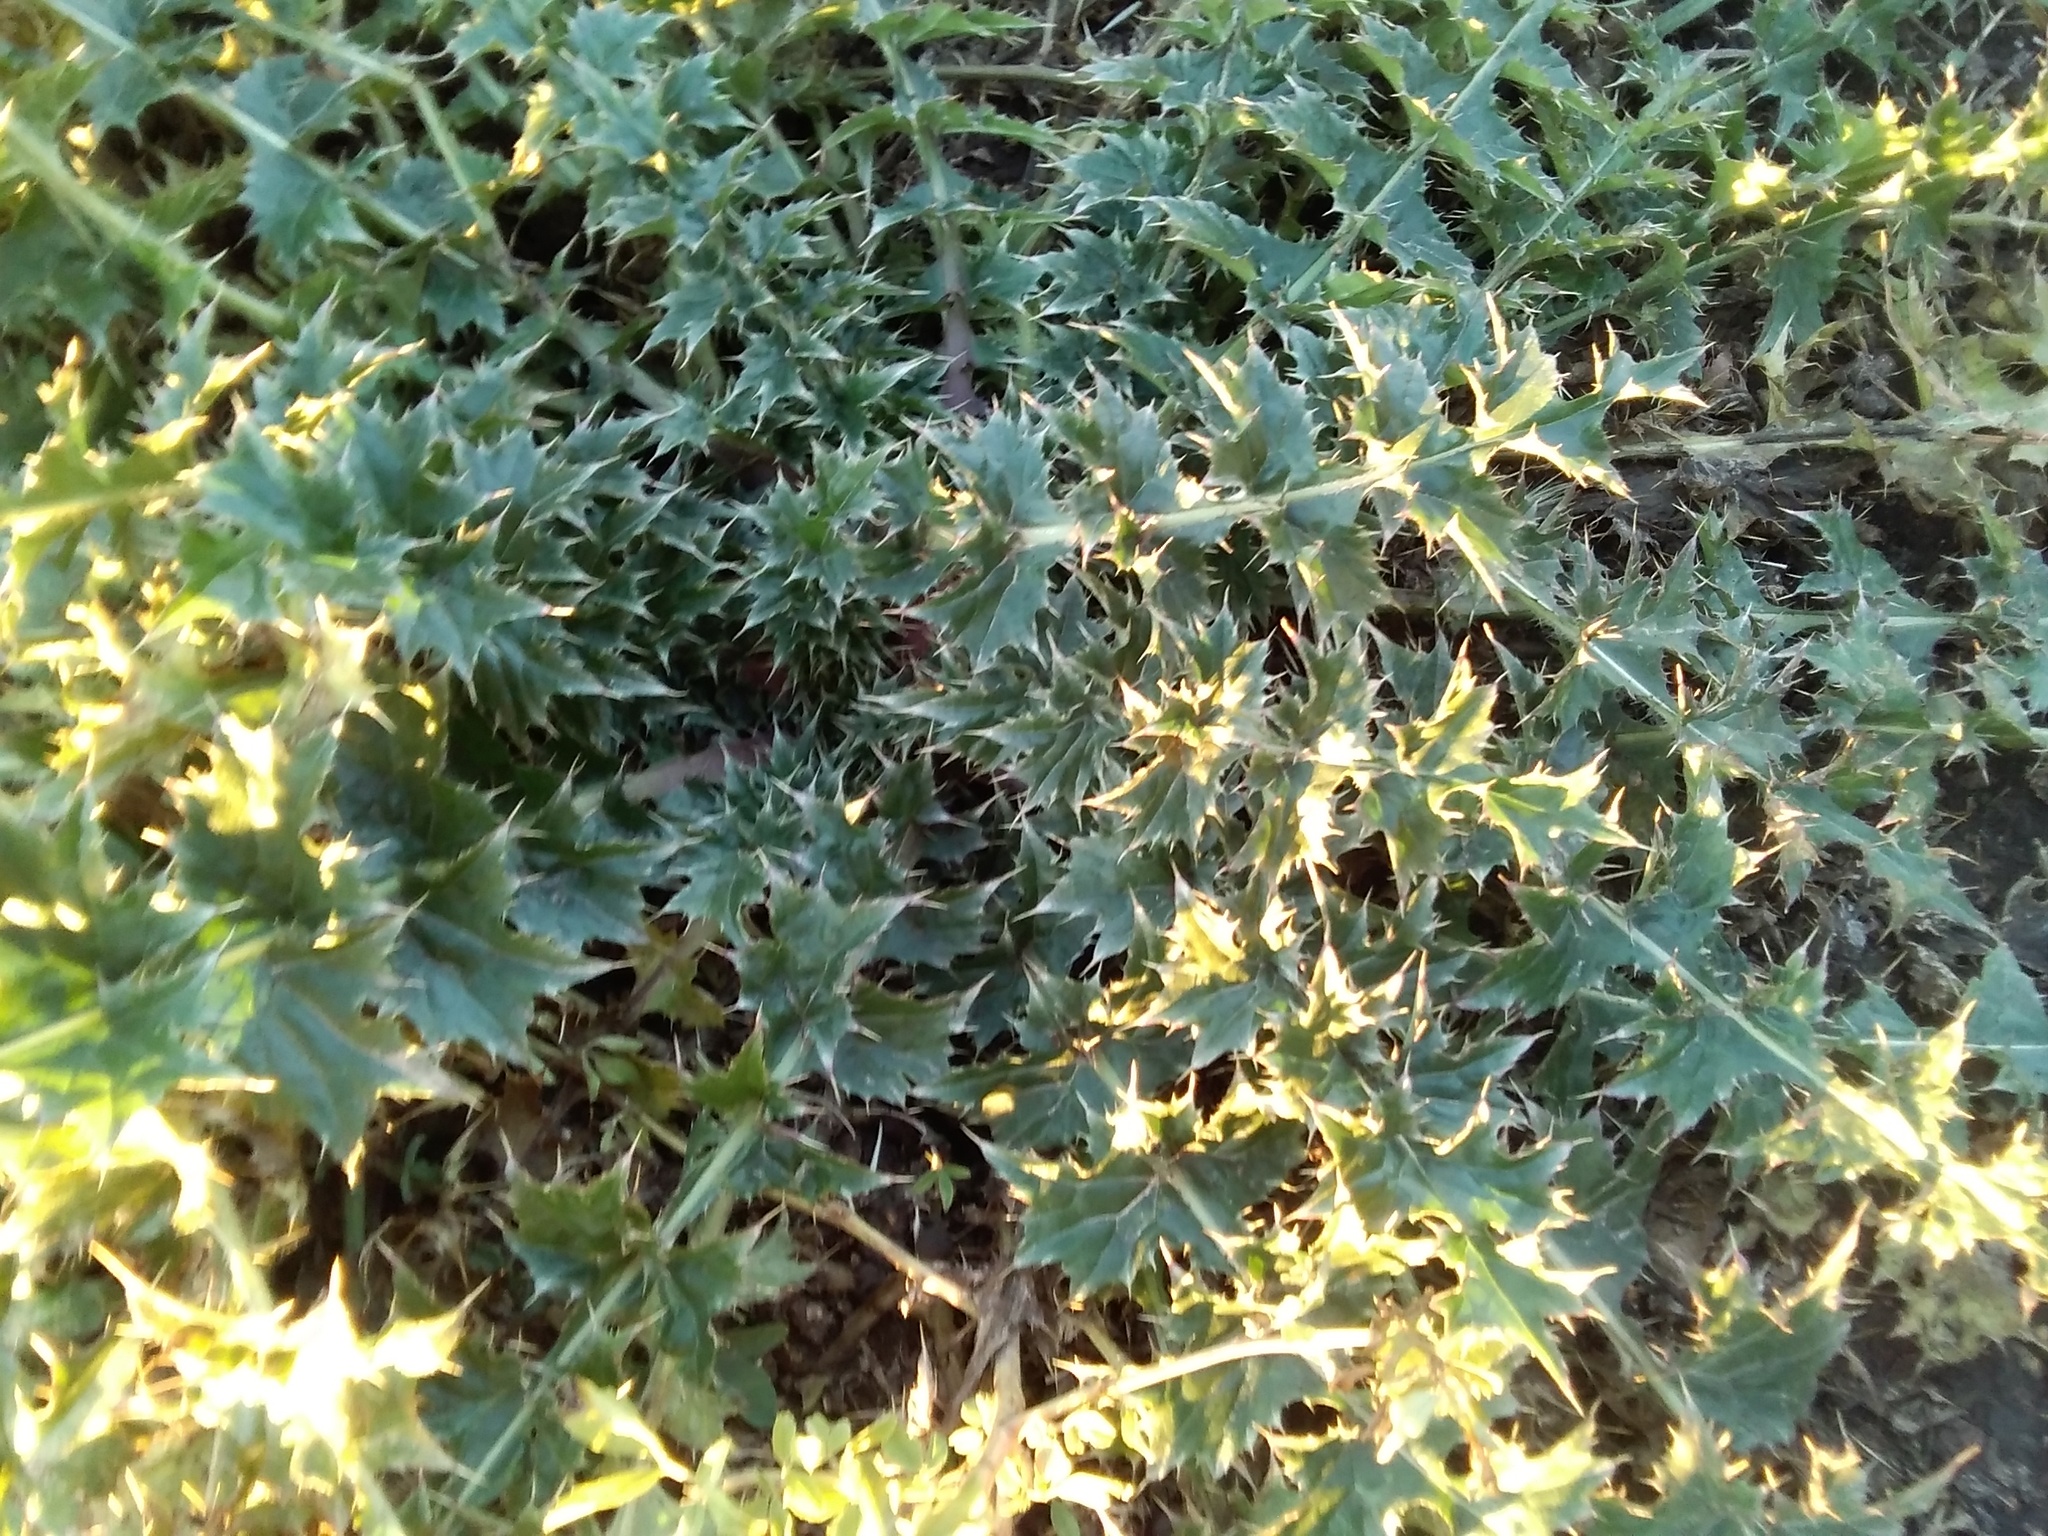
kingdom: Plantae
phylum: Tracheophyta
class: Magnoliopsida
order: Asterales
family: Asteraceae
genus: Carduus
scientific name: Carduus acanthoides
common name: Plumeless thistle
